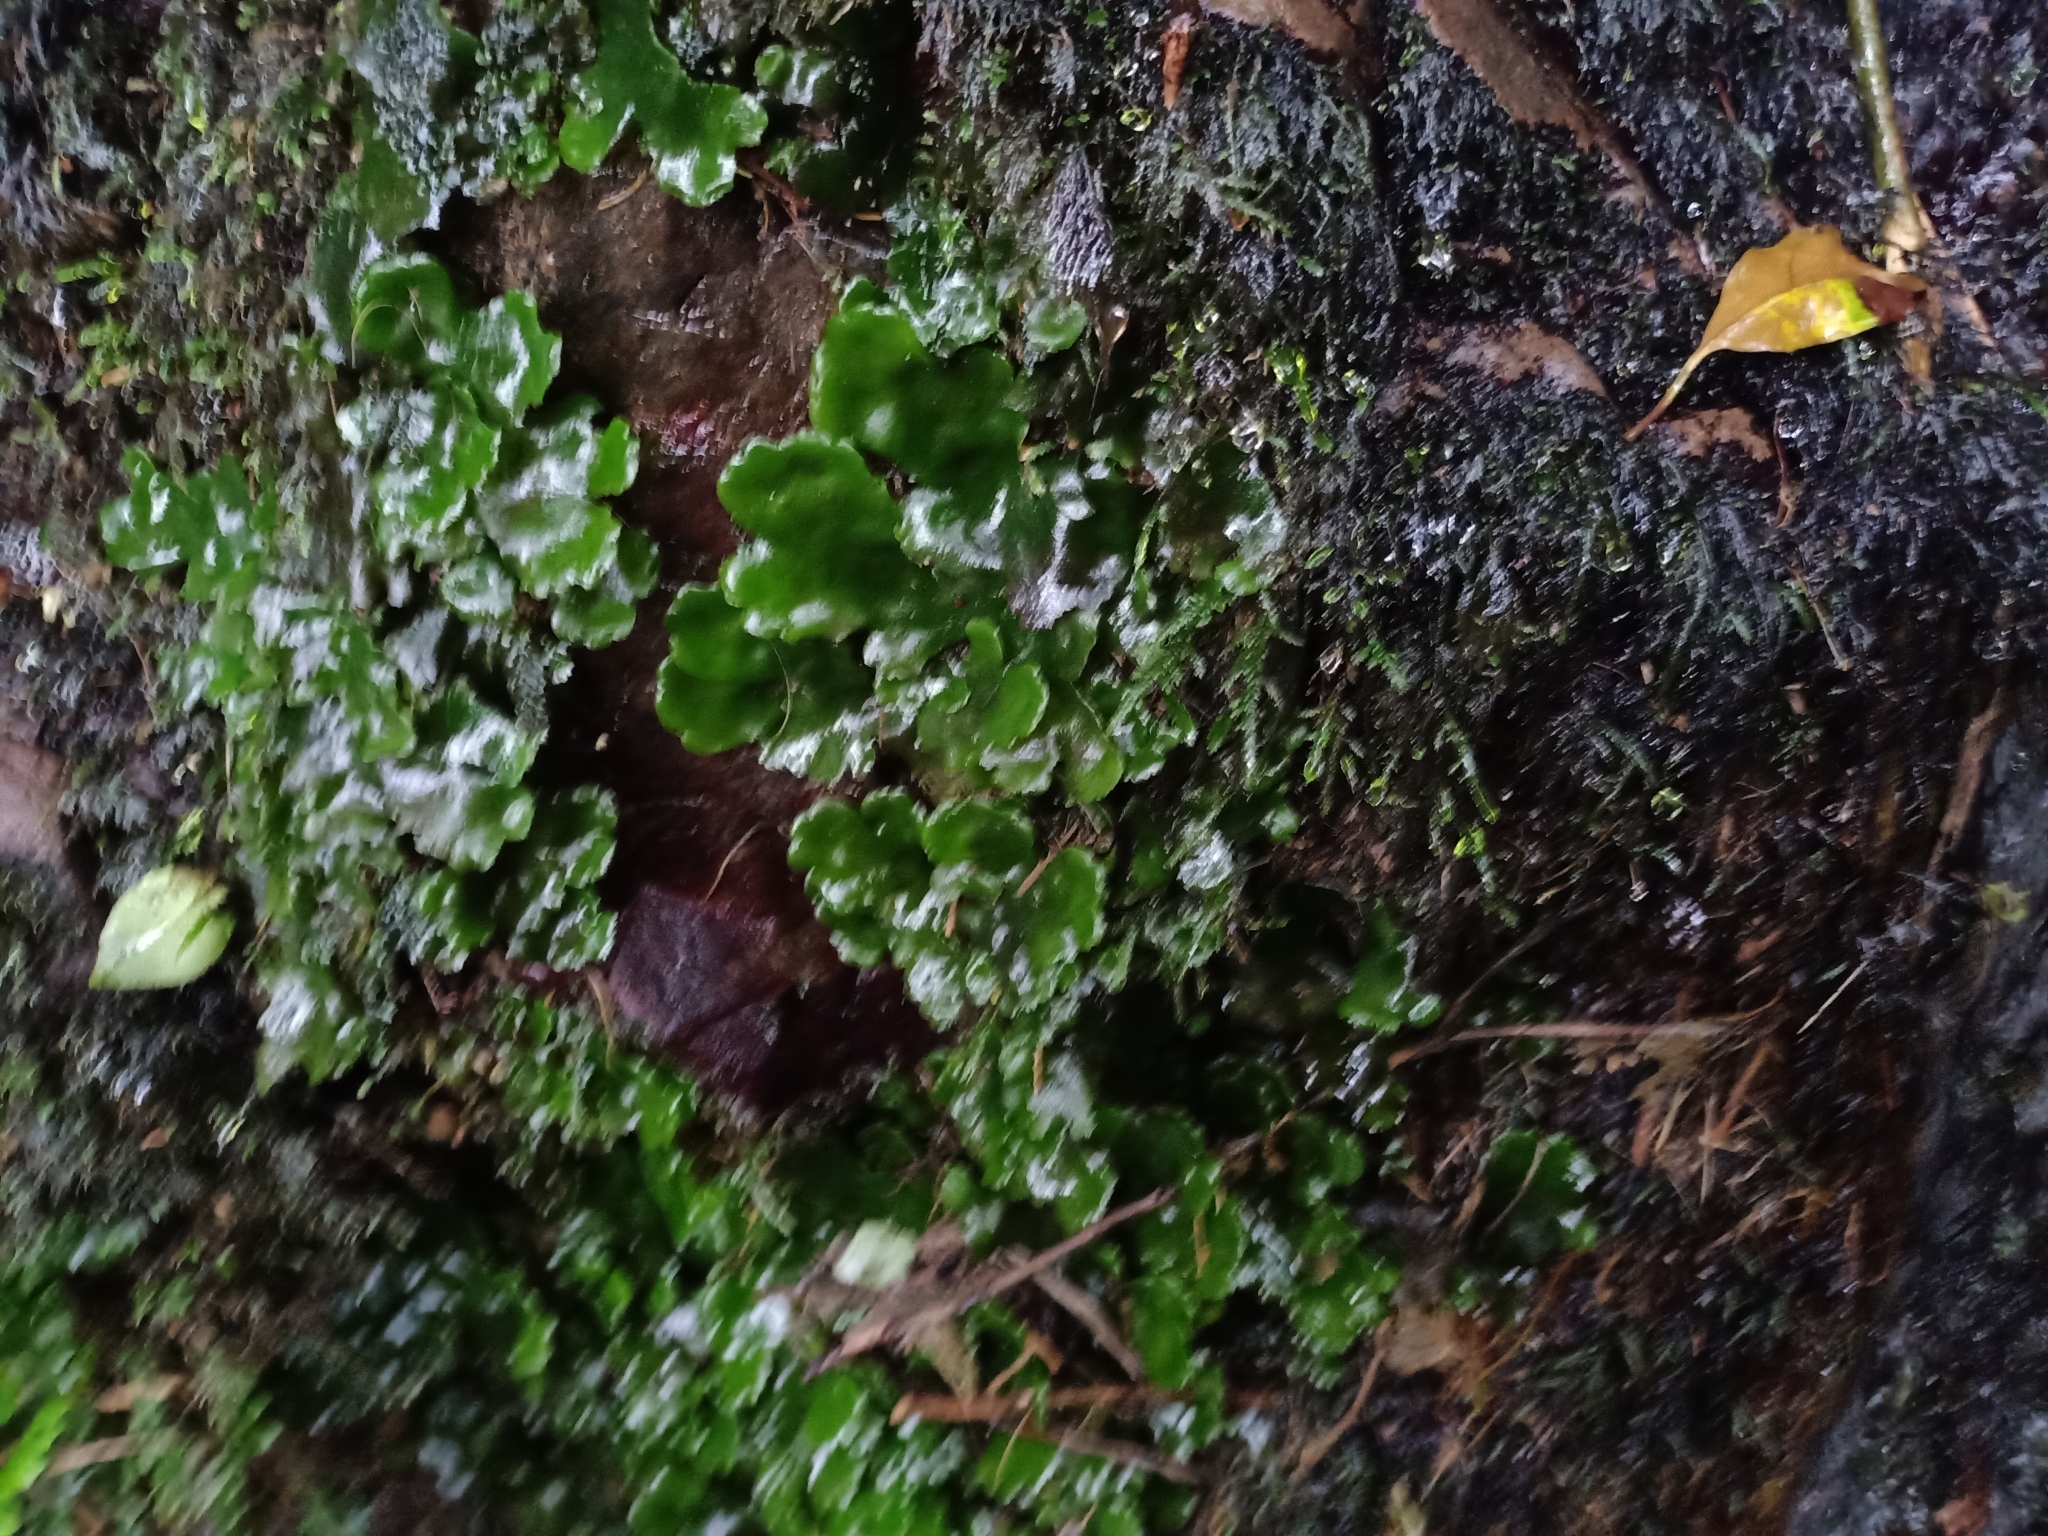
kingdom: Plantae
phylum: Marchantiophyta
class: Marchantiopsida
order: Marchantiales
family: Monocleaceae
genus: Monoclea
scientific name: Monoclea forsteri
